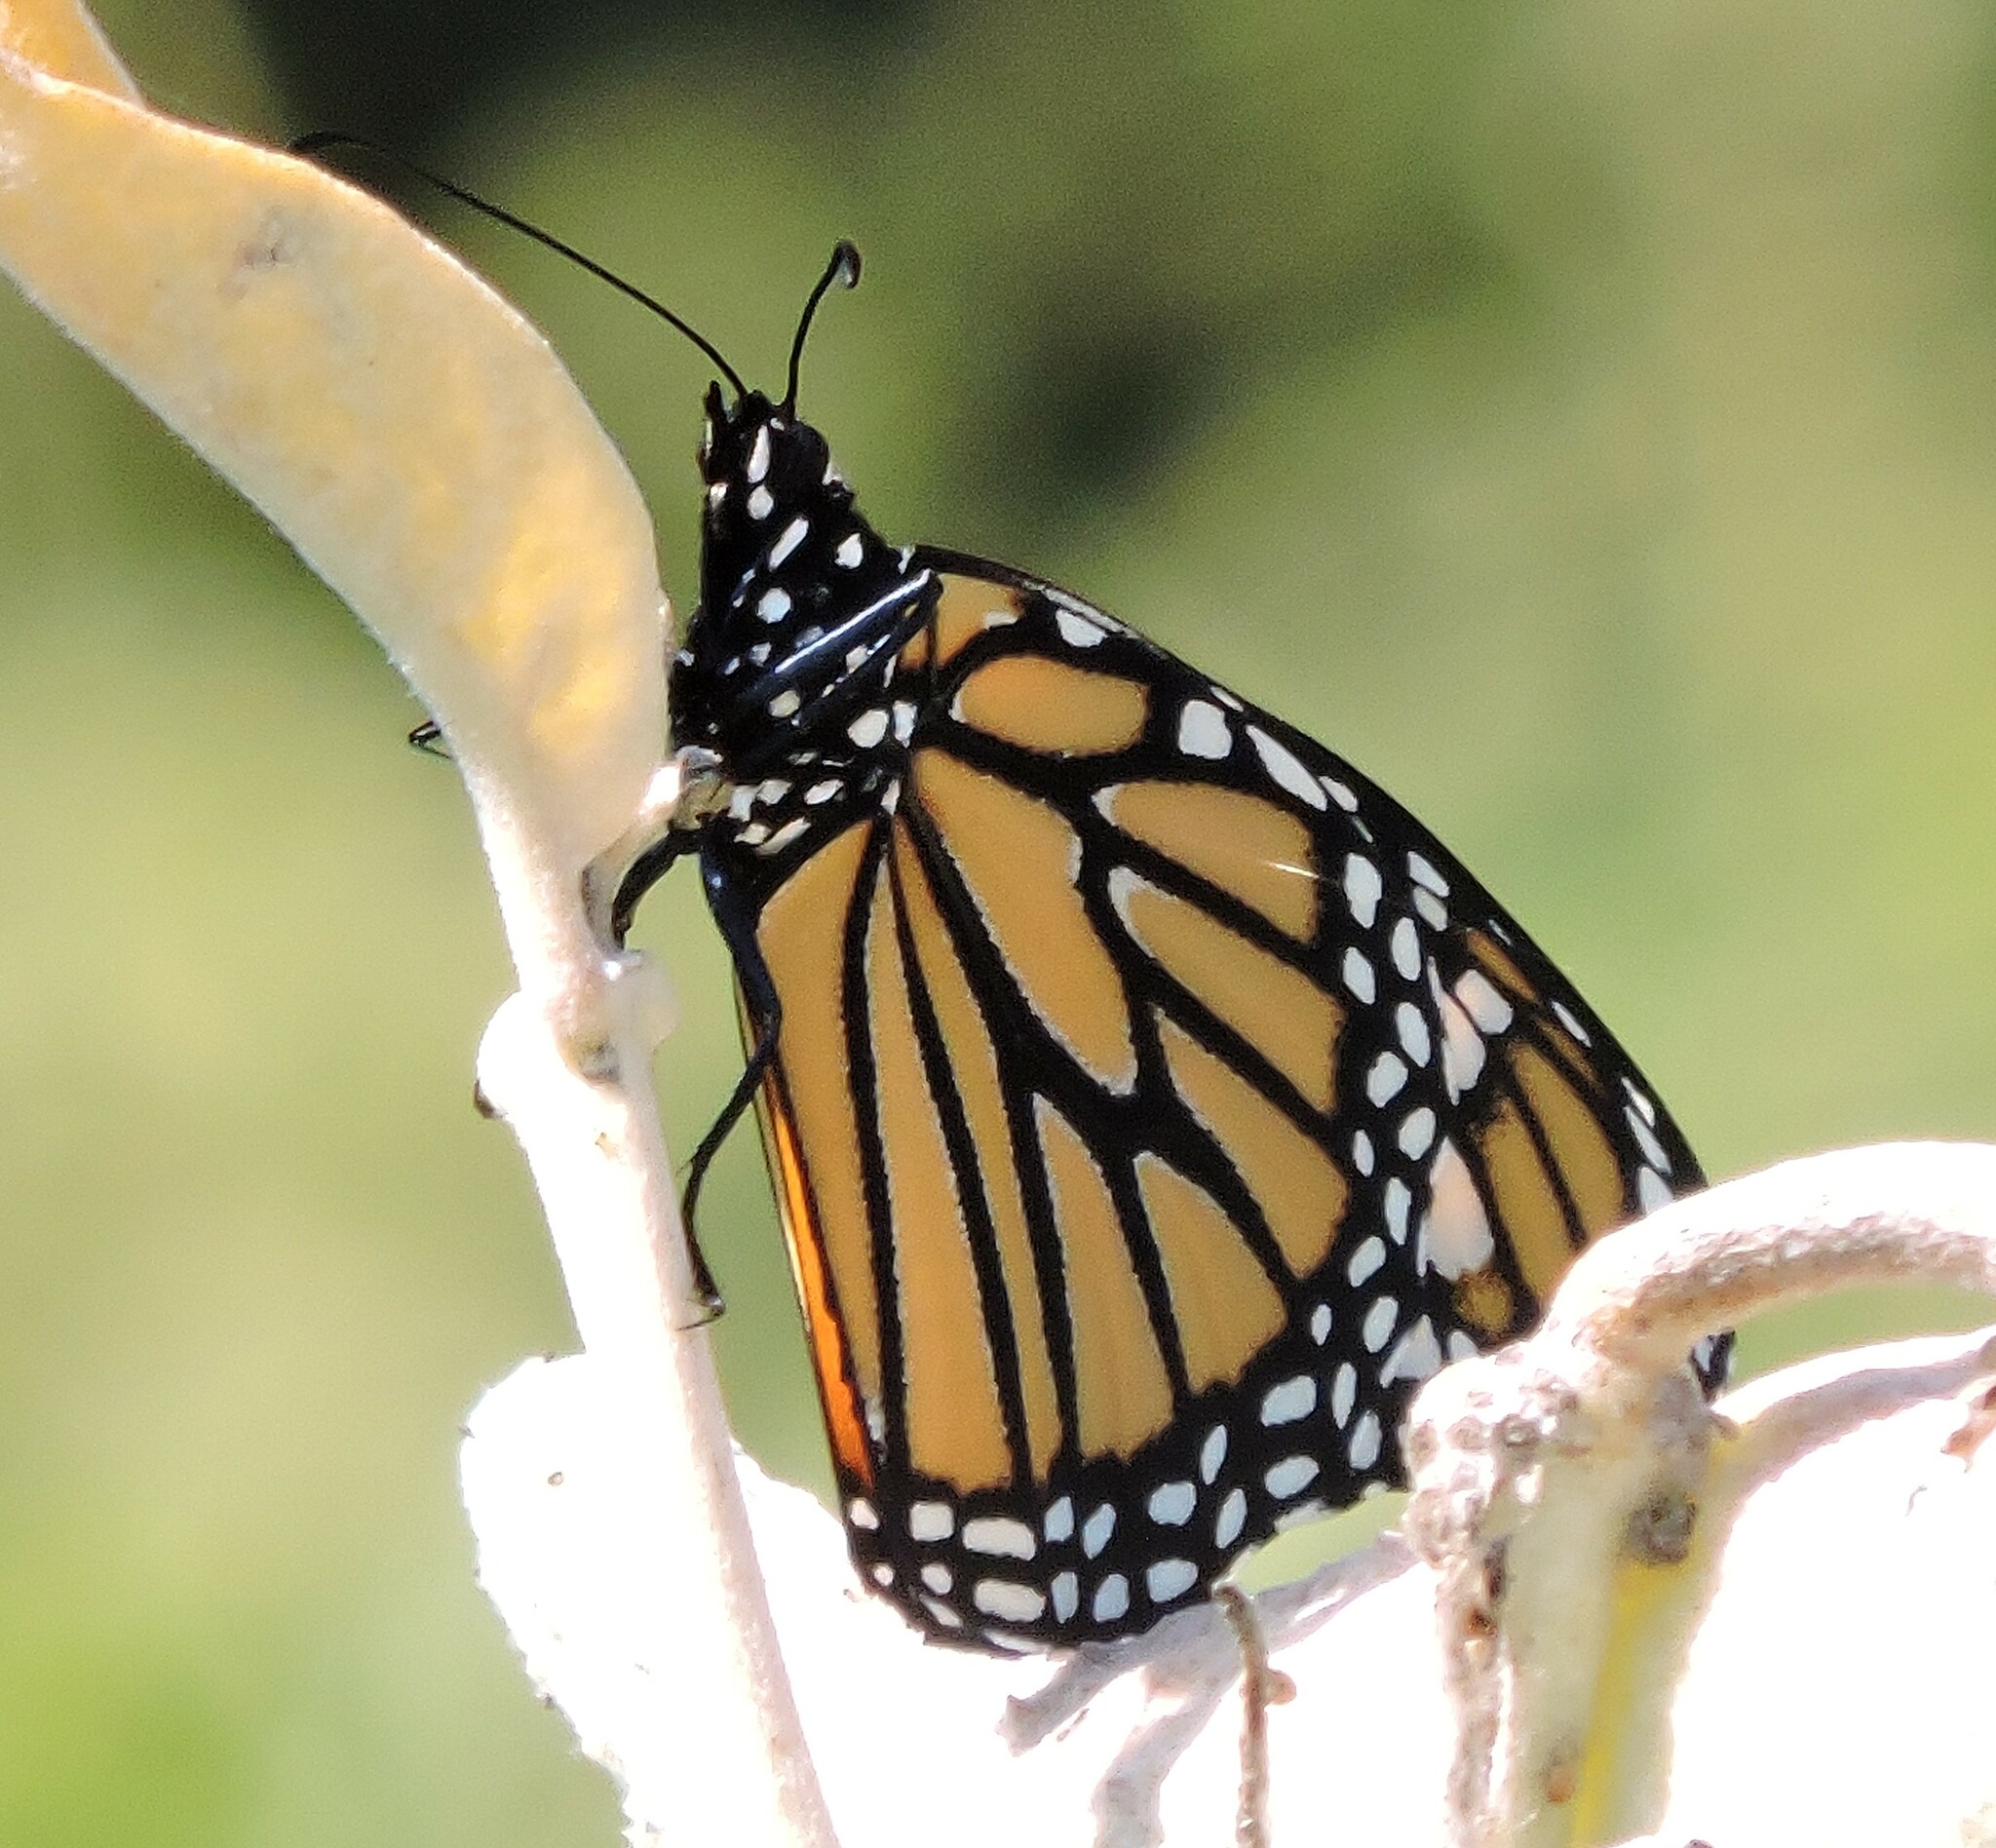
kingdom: Animalia
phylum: Arthropoda
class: Insecta
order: Lepidoptera
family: Nymphalidae
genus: Danaus
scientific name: Danaus plexippus
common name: Monarch
